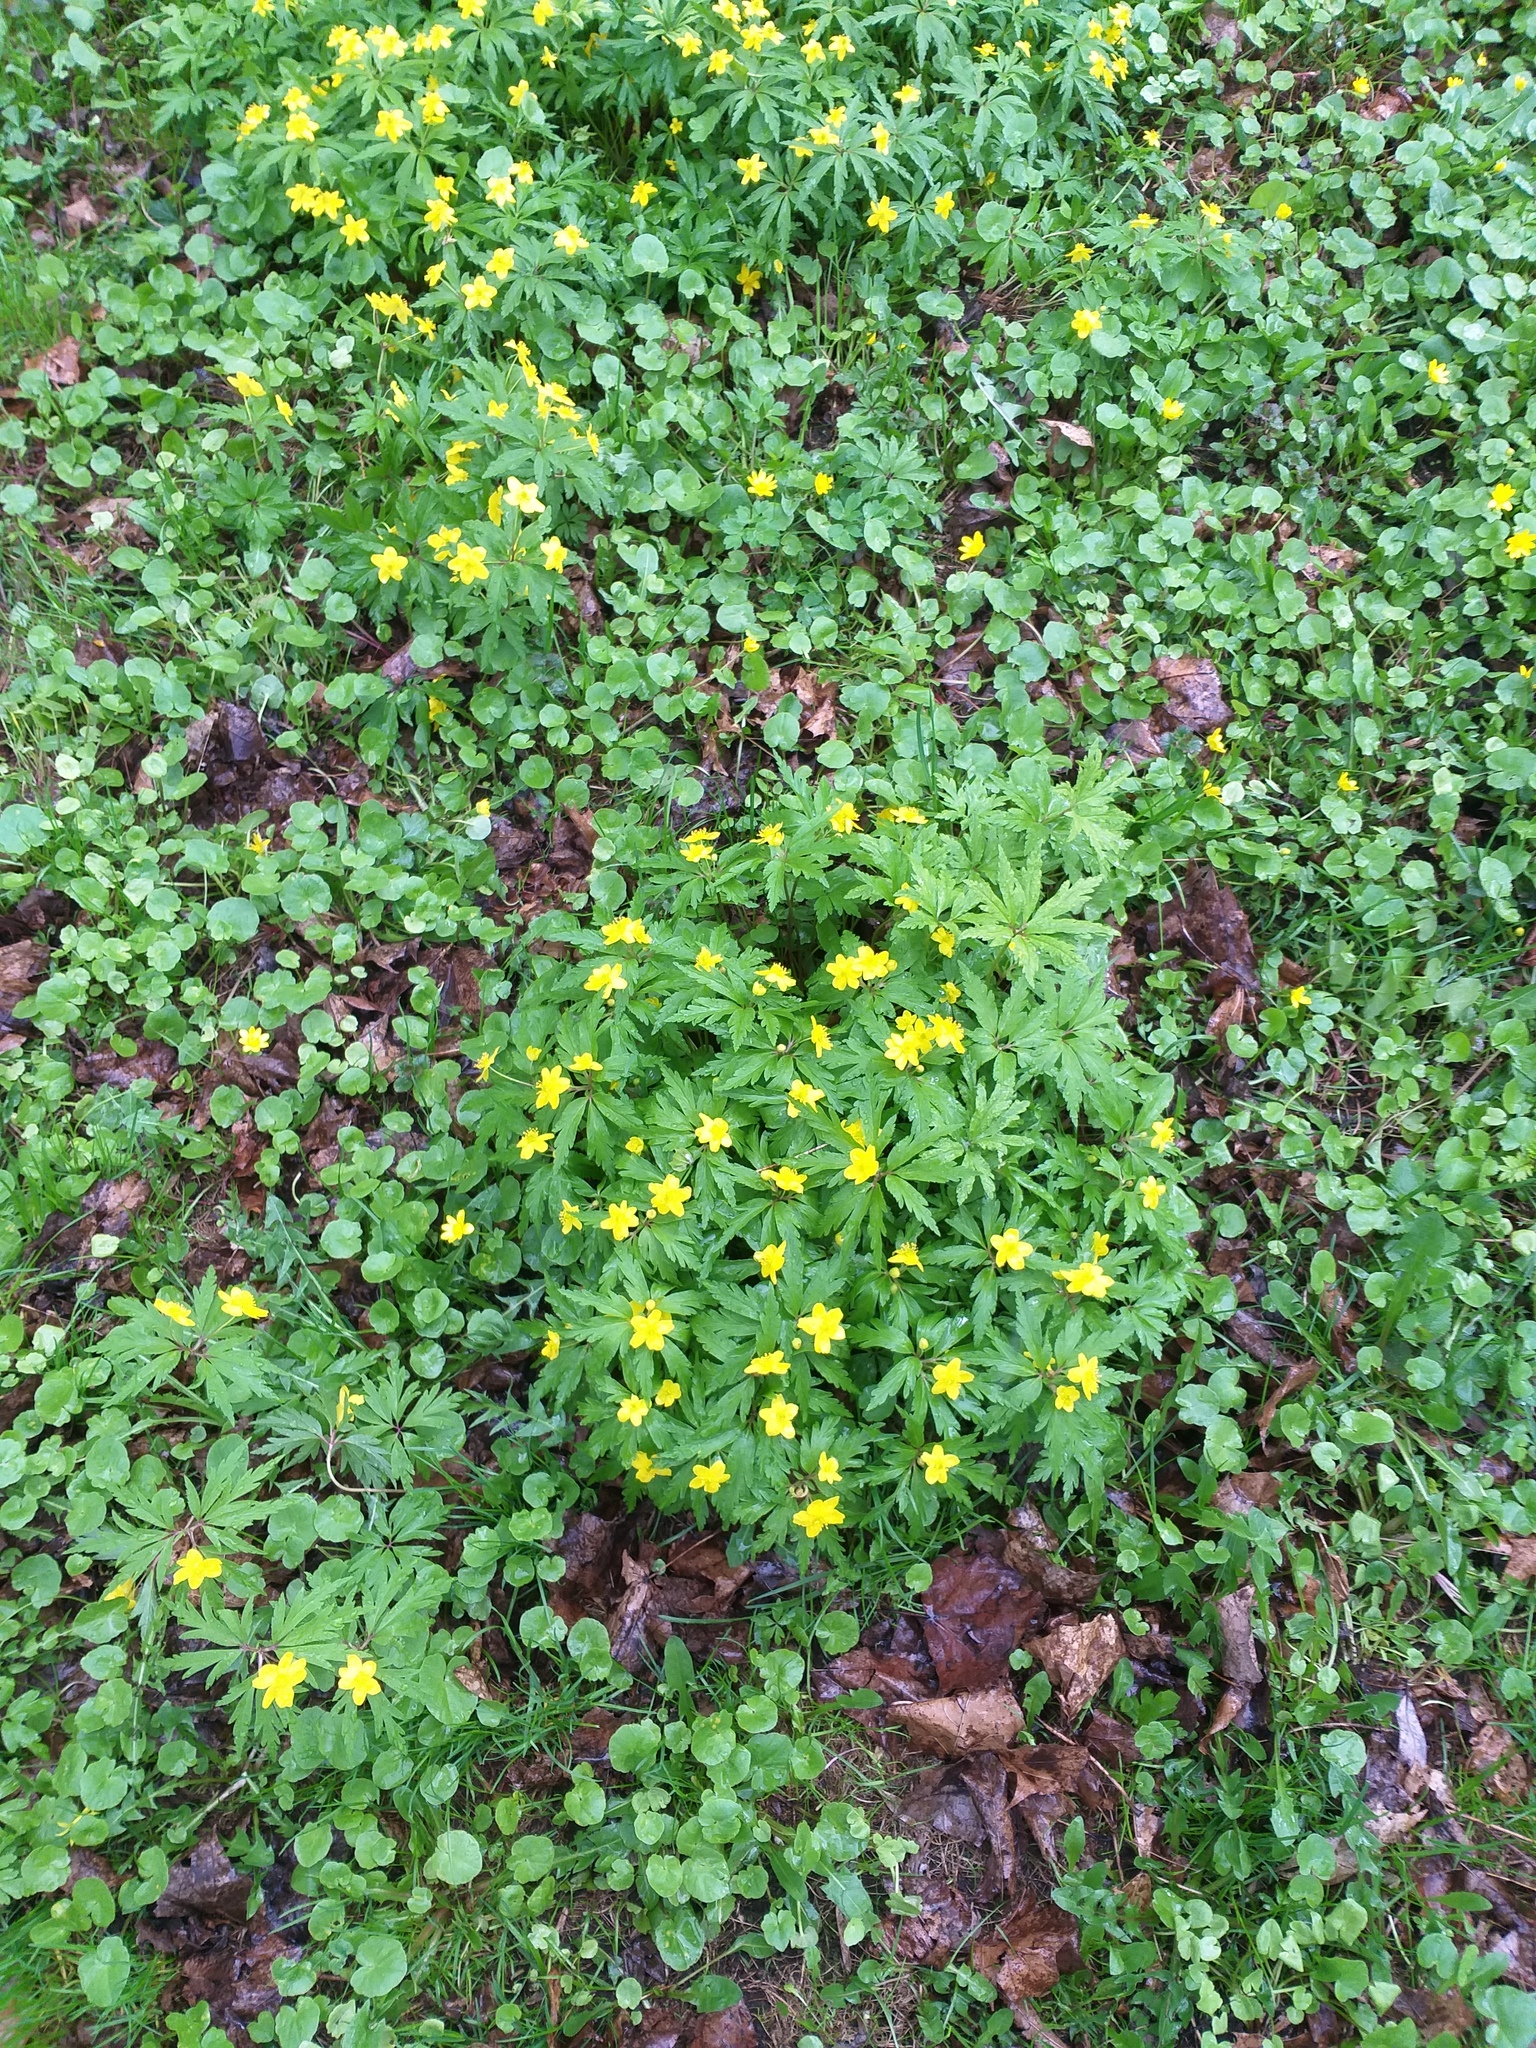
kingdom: Plantae
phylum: Tracheophyta
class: Magnoliopsida
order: Ranunculales
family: Ranunculaceae
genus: Anemone
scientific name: Anemone ranunculoides
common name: Yellow anemone
